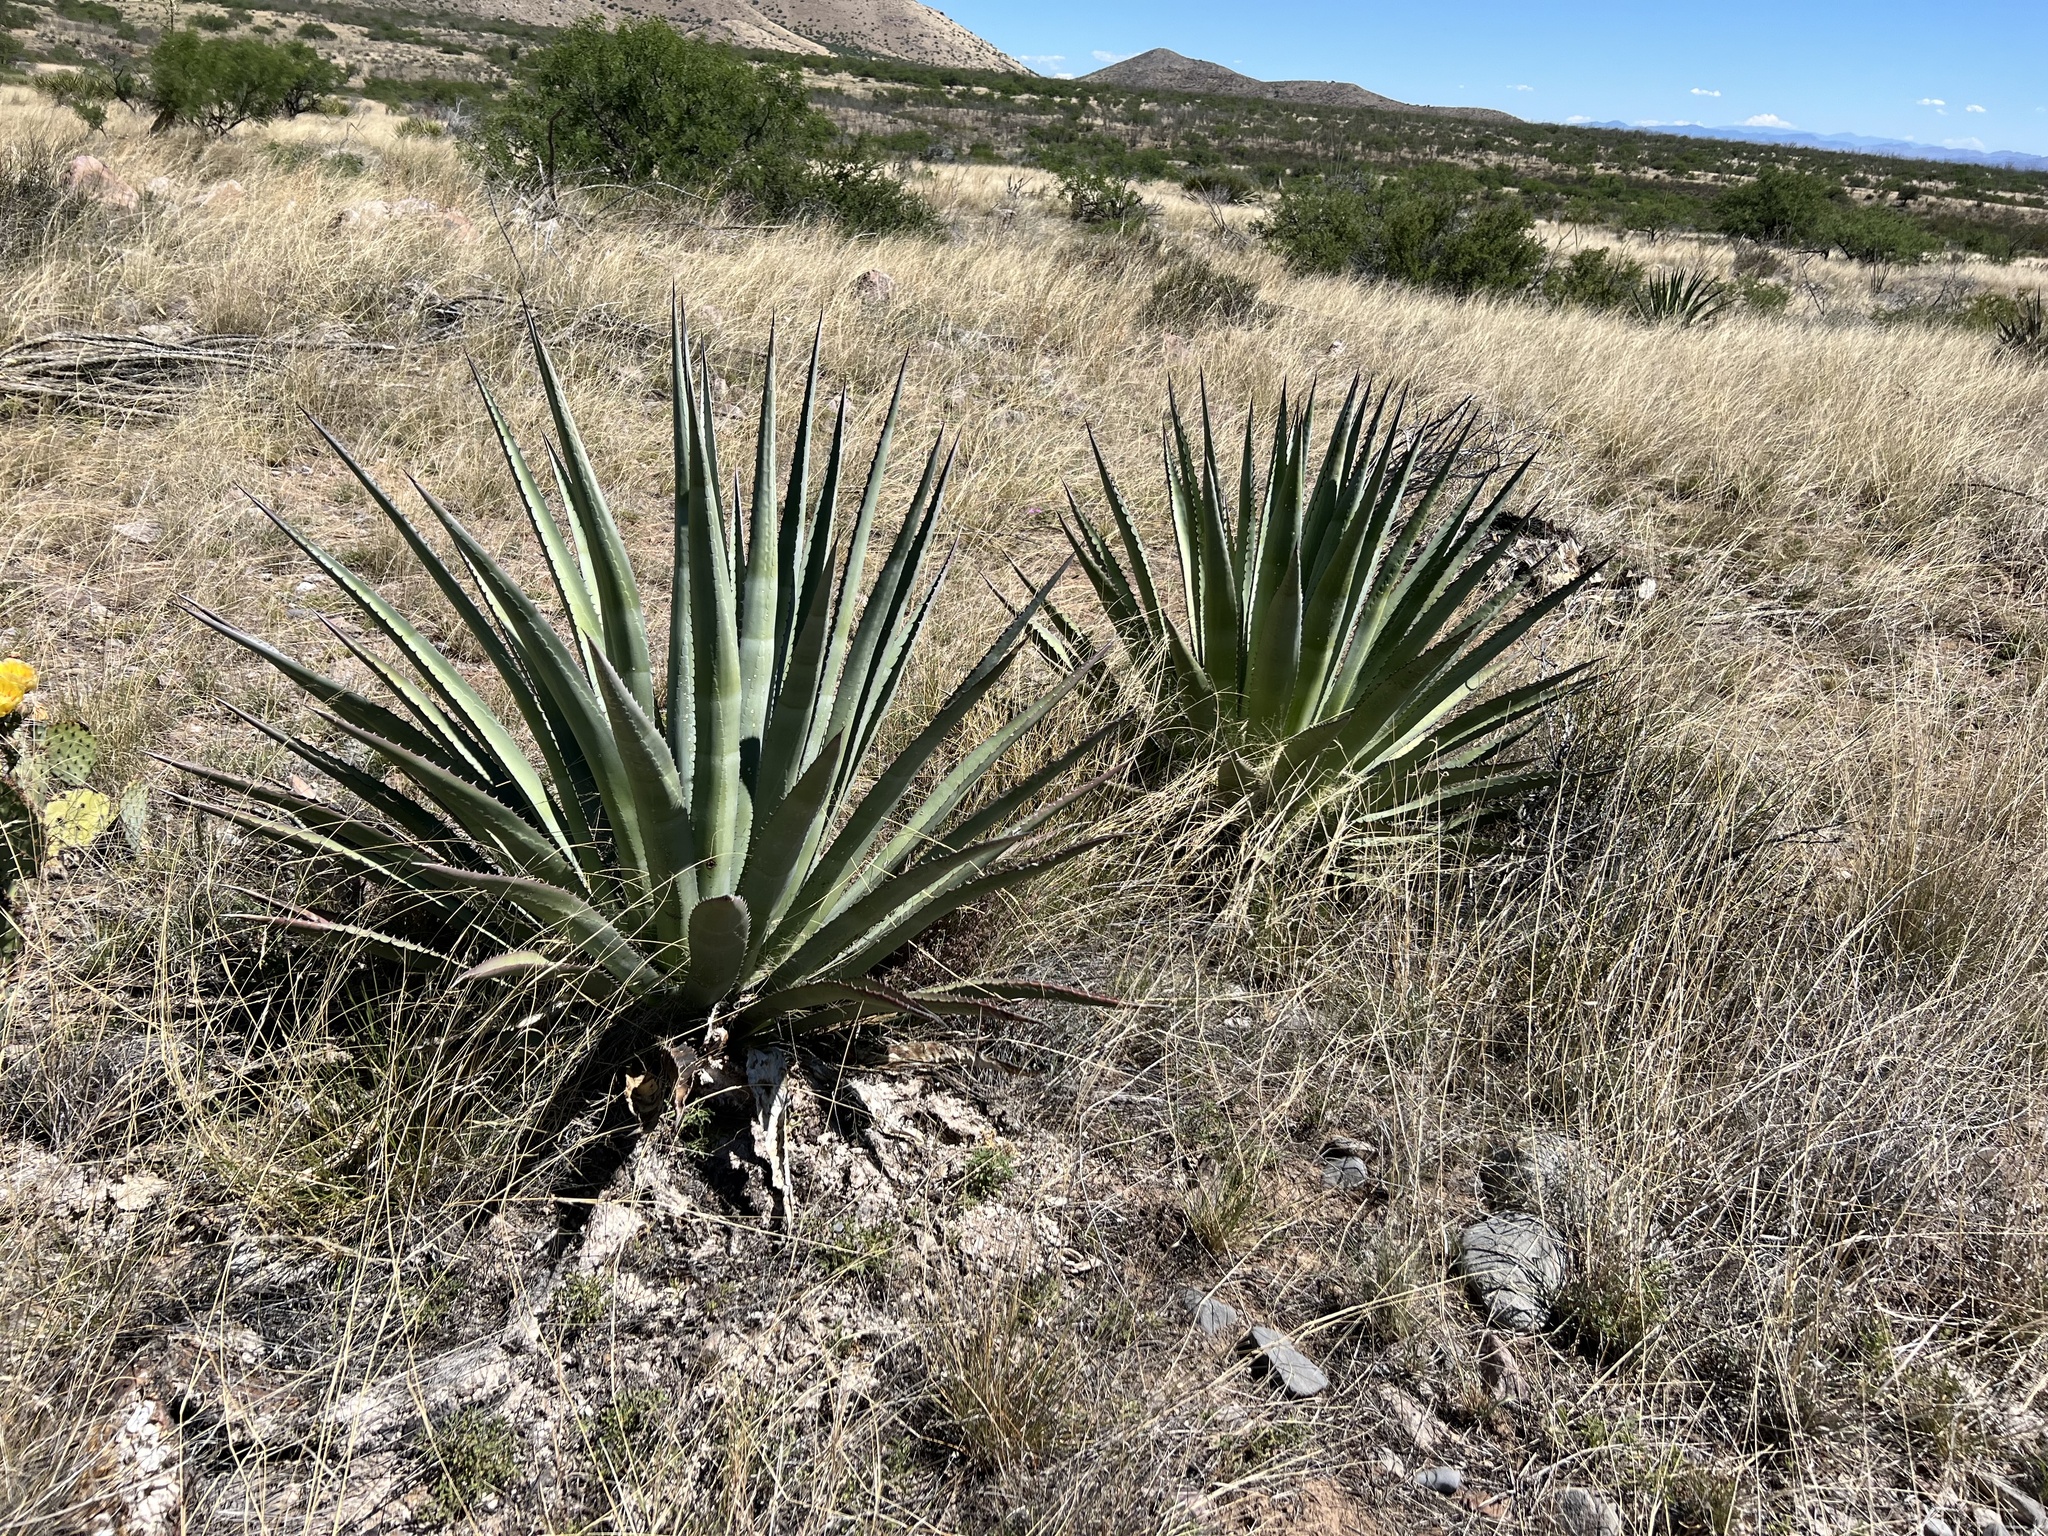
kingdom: Plantae
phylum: Tracheophyta
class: Liliopsida
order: Asparagales
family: Asparagaceae
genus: Agave
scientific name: Agave palmeri
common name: Palmer agave
